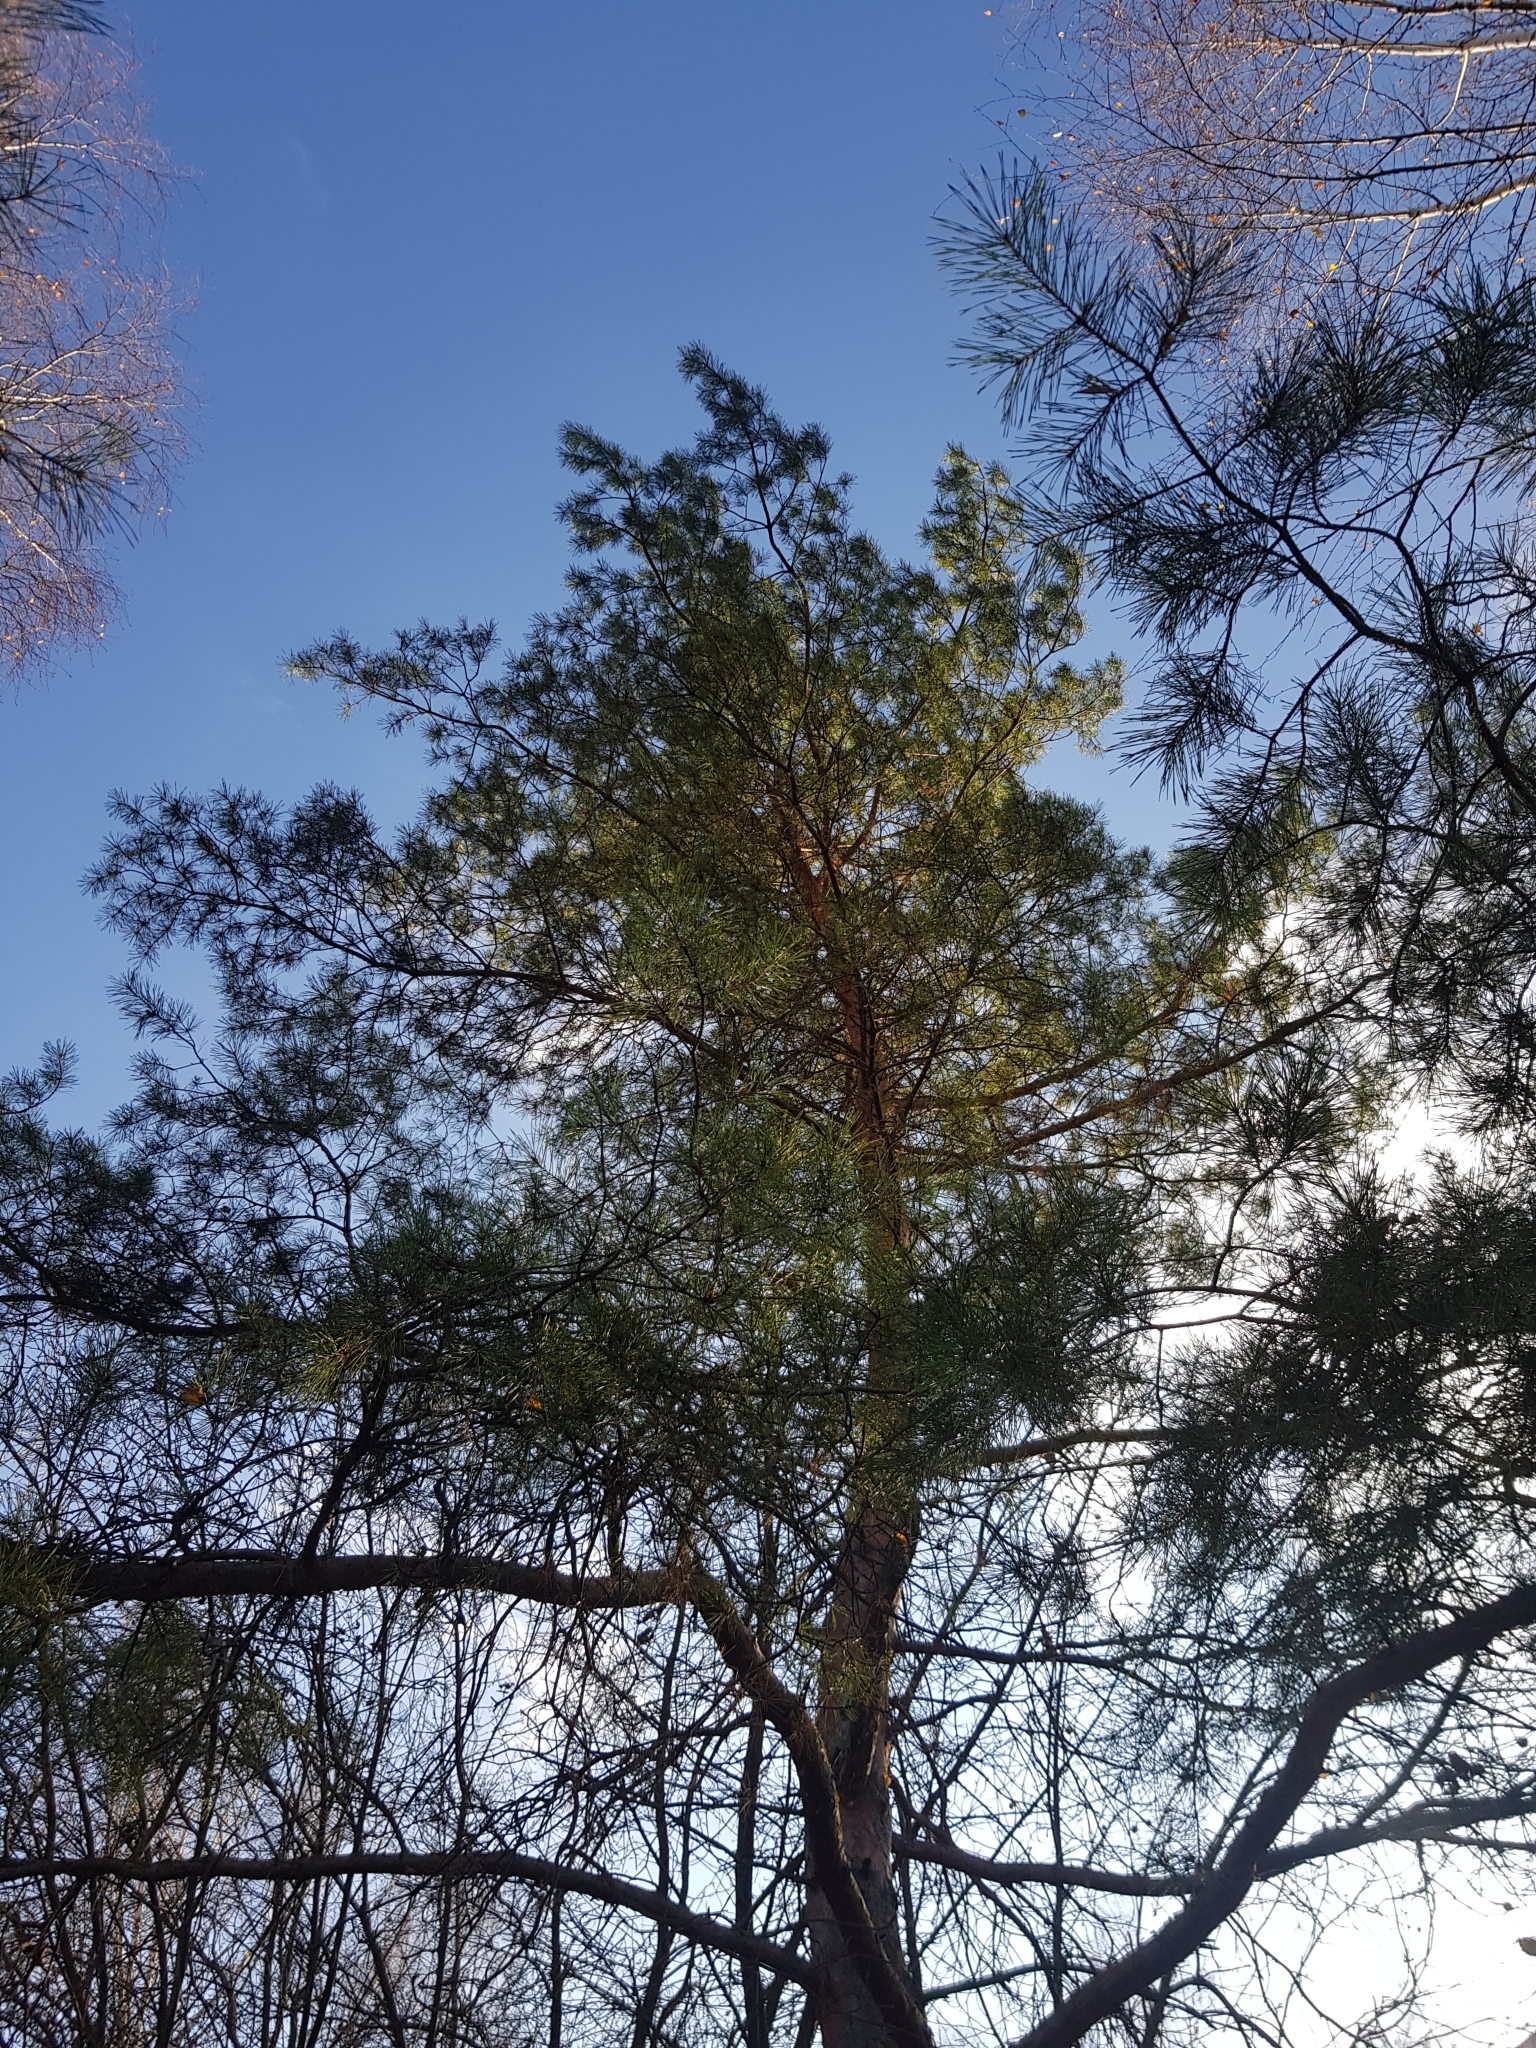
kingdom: Plantae
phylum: Tracheophyta
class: Pinopsida
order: Pinales
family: Pinaceae
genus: Pinus
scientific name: Pinus sylvestris
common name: Scots pine
